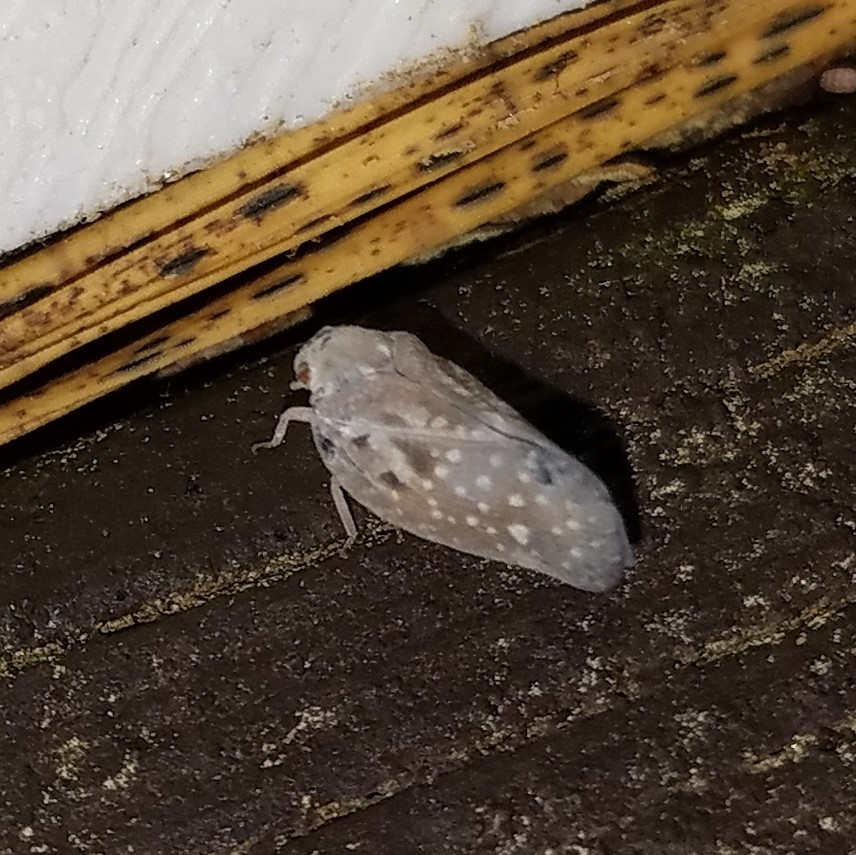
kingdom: Animalia
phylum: Arthropoda
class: Insecta
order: Hemiptera
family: Flatidae
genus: Metcalfa
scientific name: Metcalfa pruinosa
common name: Citrus flatid planthopper
